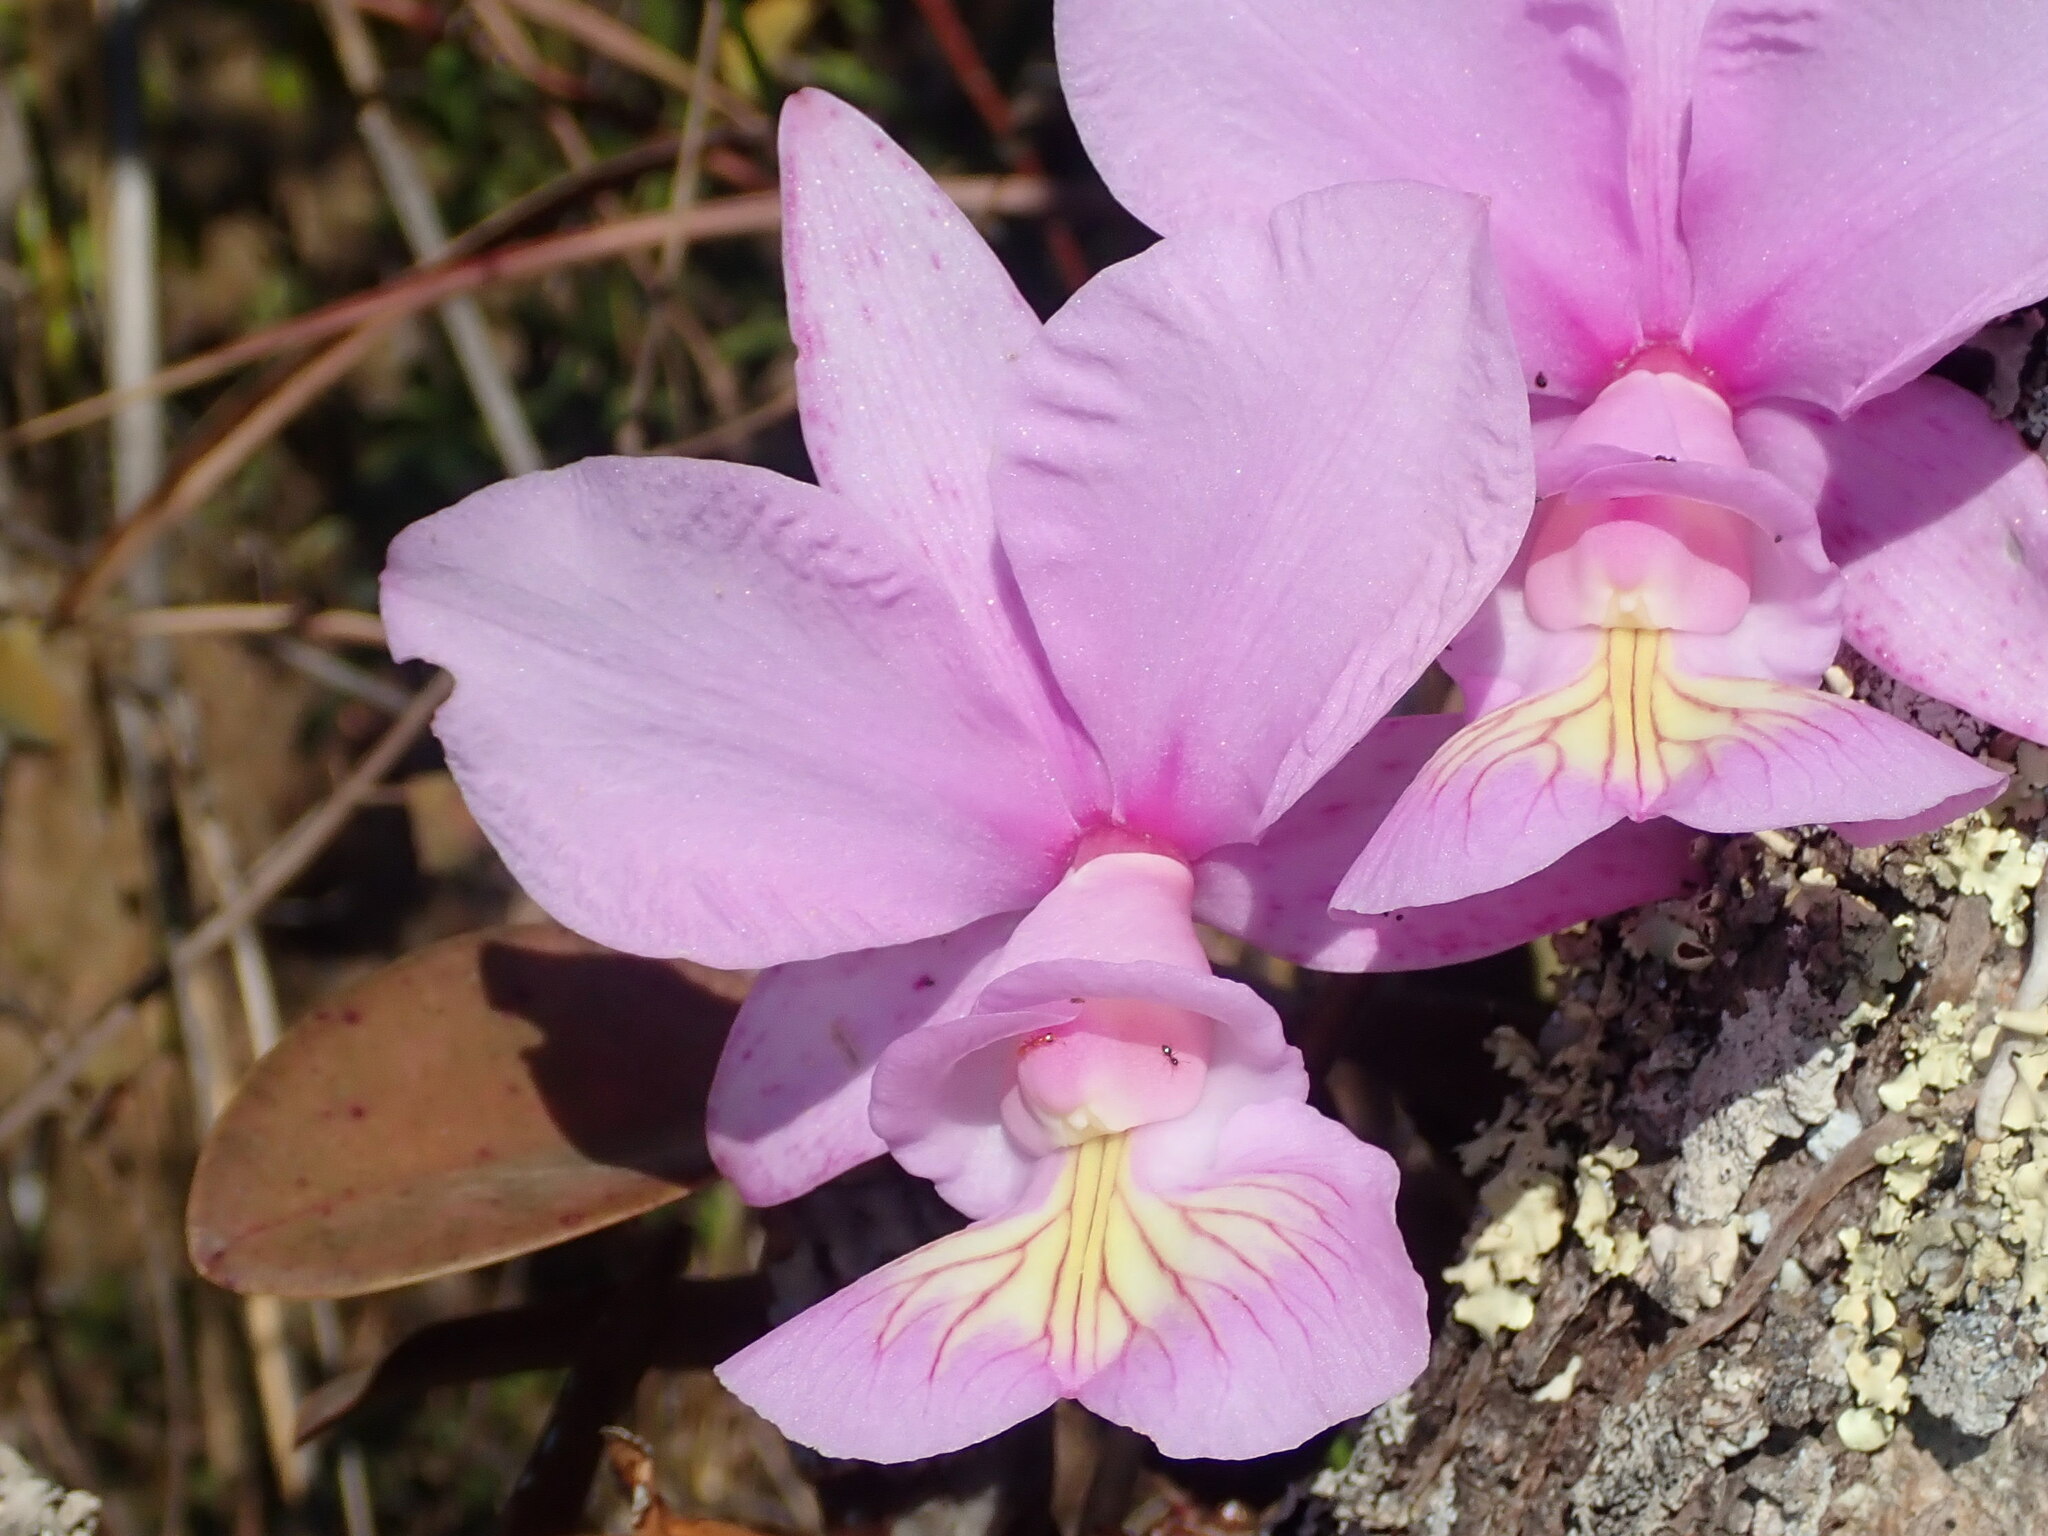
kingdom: Plantae
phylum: Tracheophyta
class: Liliopsida
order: Asparagales
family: Orchidaceae
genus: Cattleya
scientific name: Cattleya nobilior
